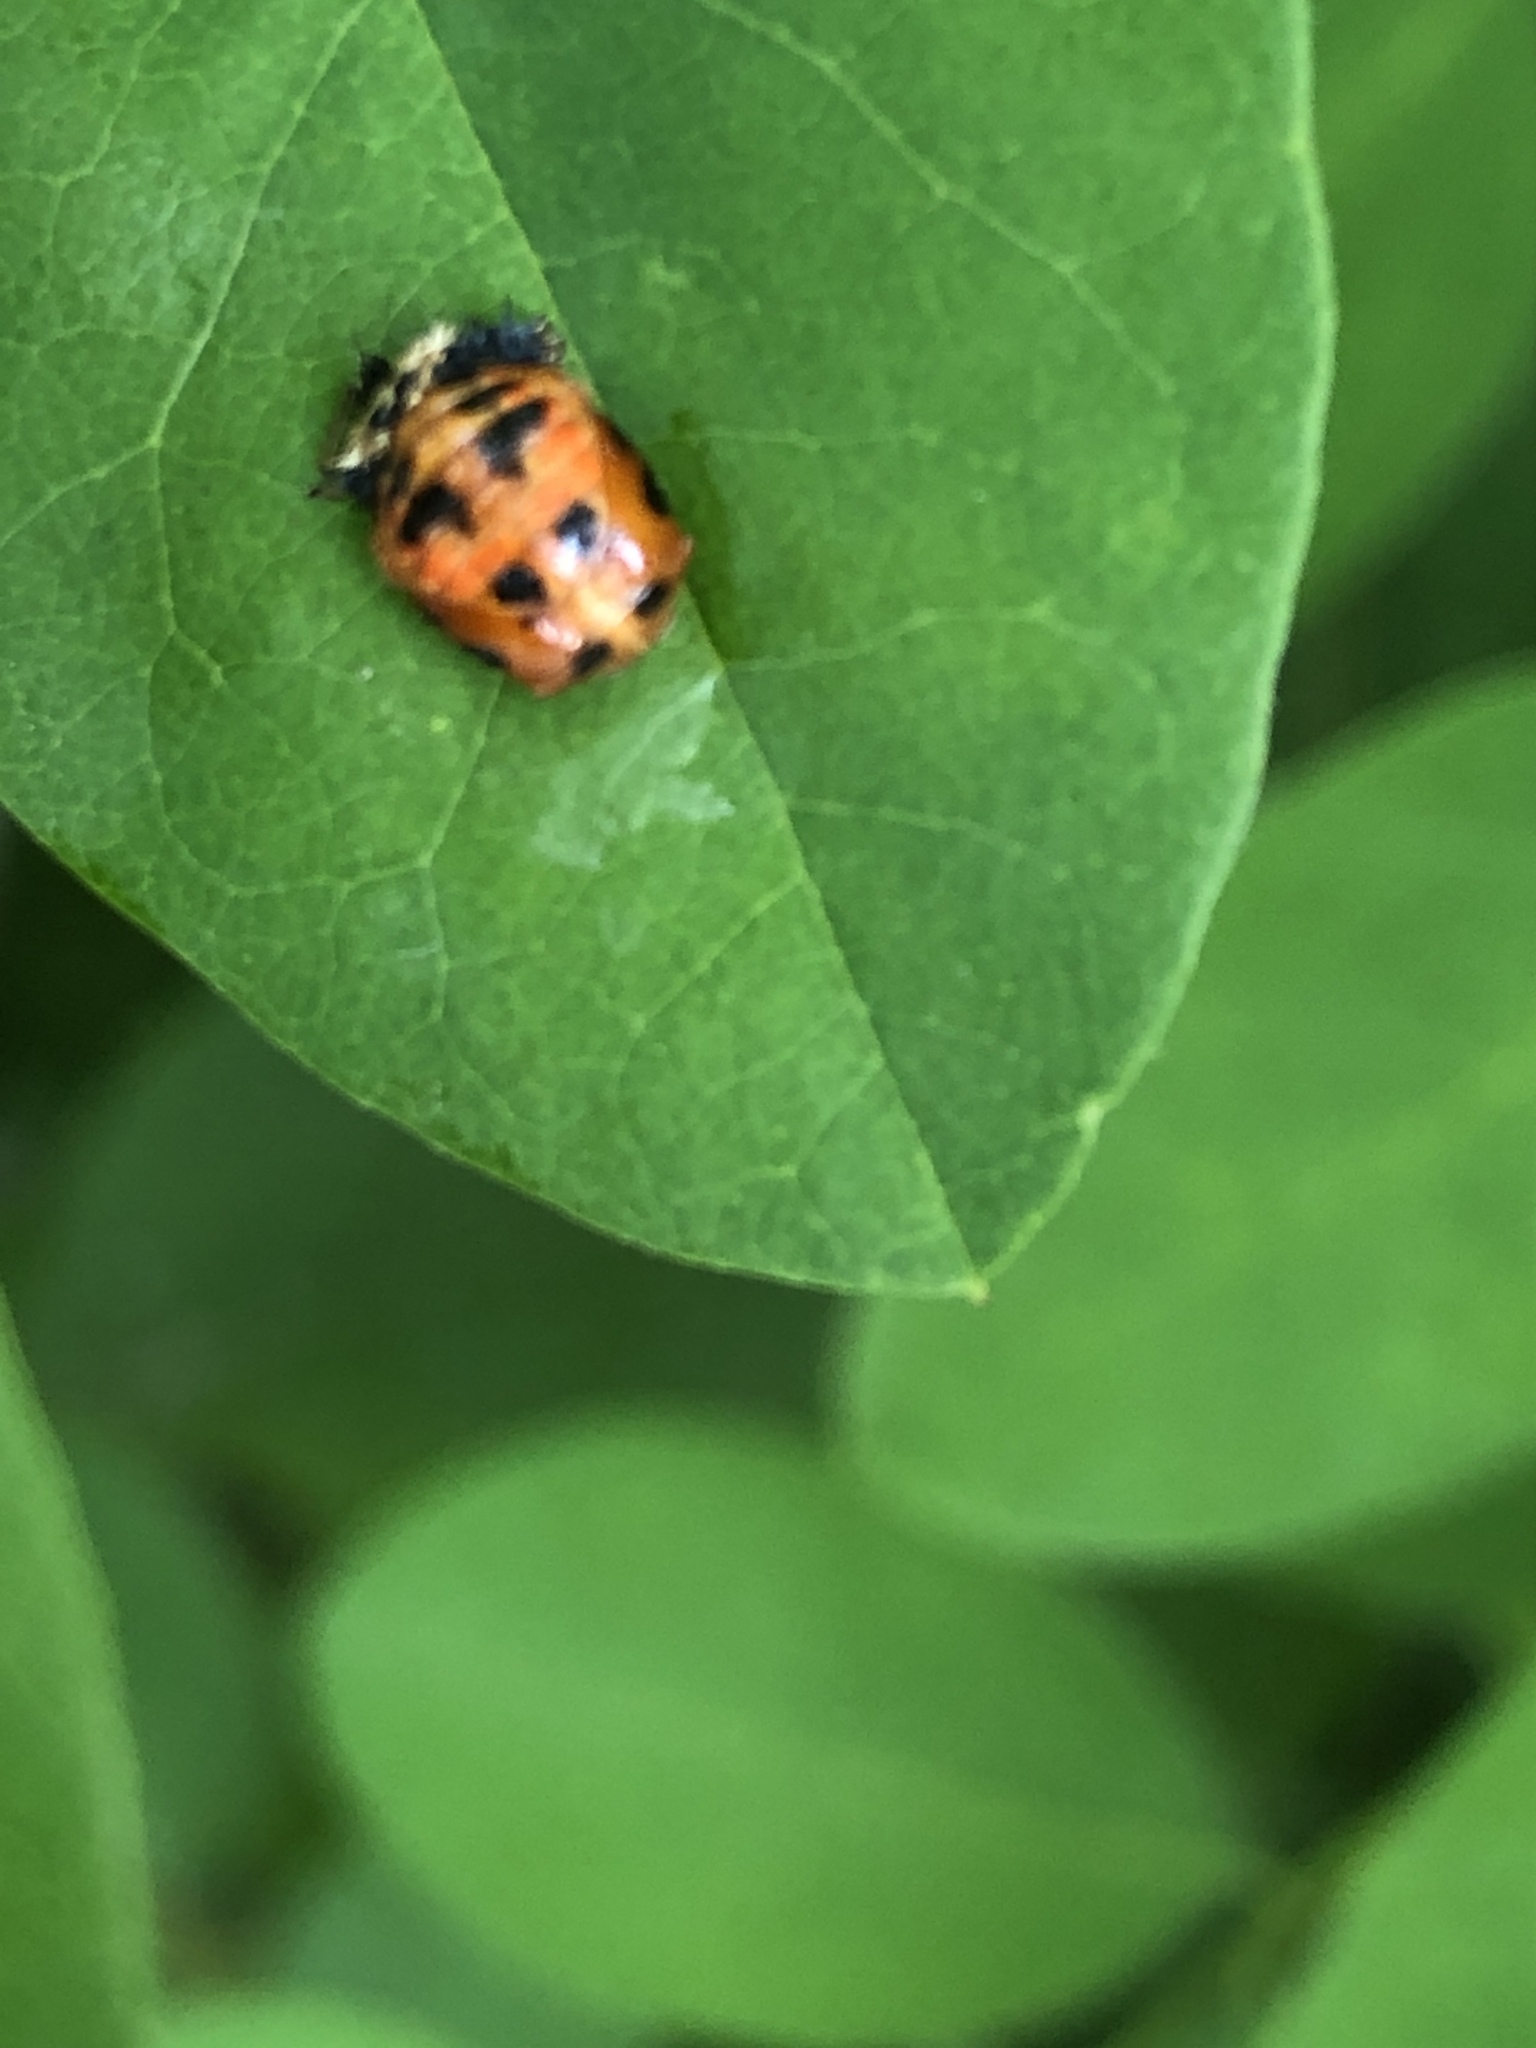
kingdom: Animalia
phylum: Arthropoda
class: Insecta
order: Coleoptera
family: Coccinellidae
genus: Harmonia
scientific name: Harmonia axyridis
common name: Harlequin ladybird
